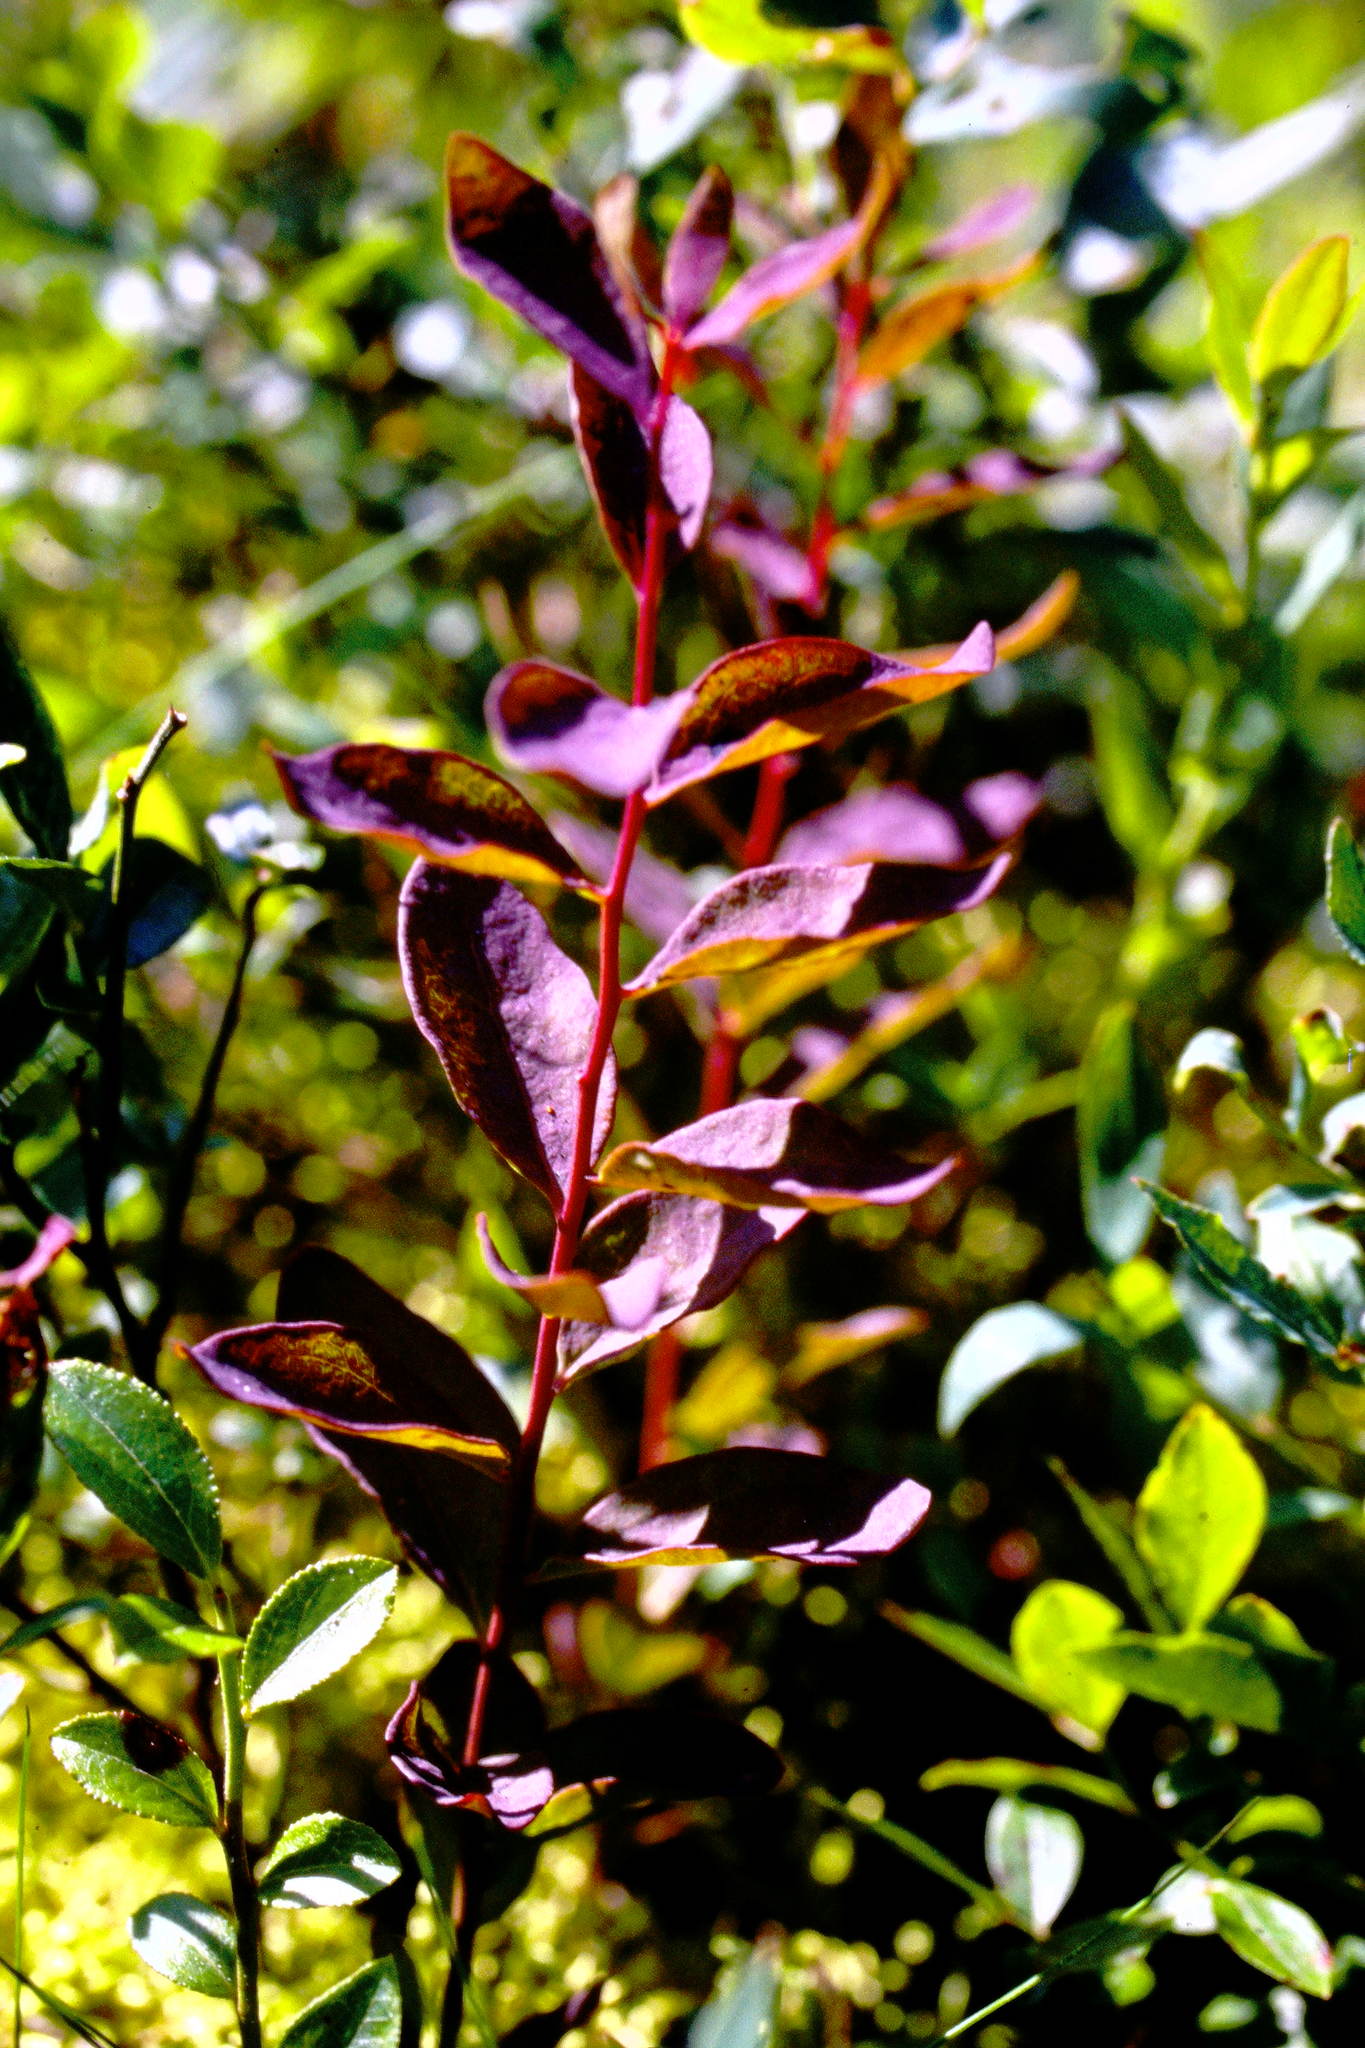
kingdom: Plantae
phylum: Tracheophyta
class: Magnoliopsida
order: Santalales
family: Comandraceae
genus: Geocaulon
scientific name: Geocaulon lividum
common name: Earthberry
